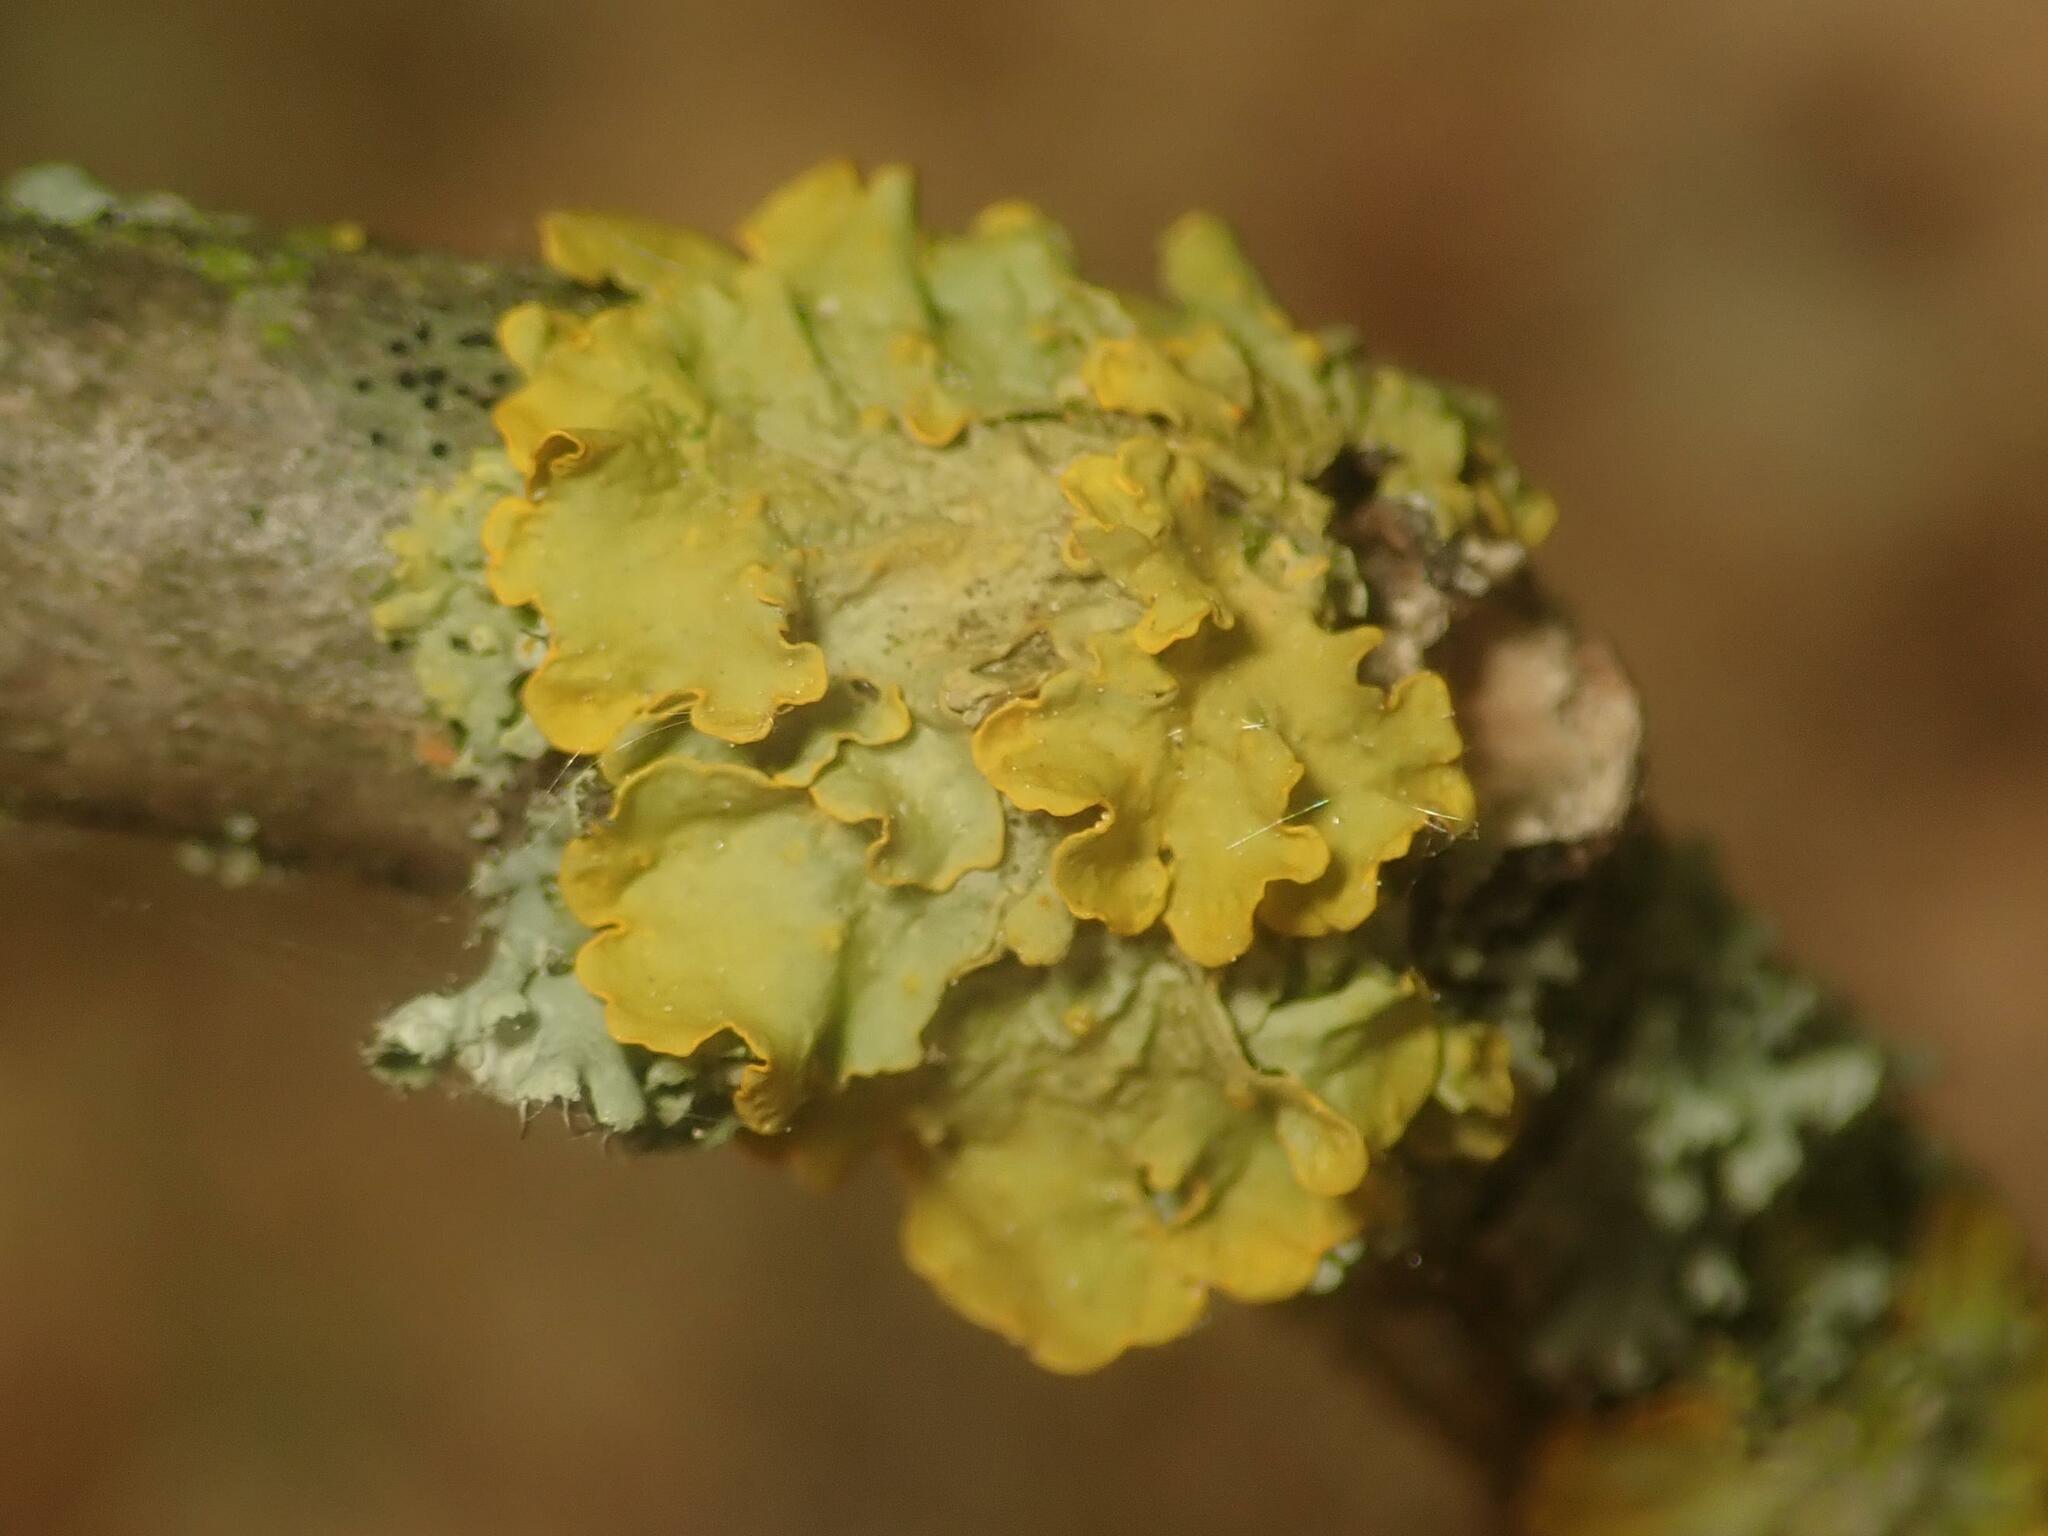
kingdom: Fungi
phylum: Ascomycota
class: Lecanoromycetes
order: Teloschistales
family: Teloschistaceae
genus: Xanthoria
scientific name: Xanthoria parietina
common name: Common orange lichen
